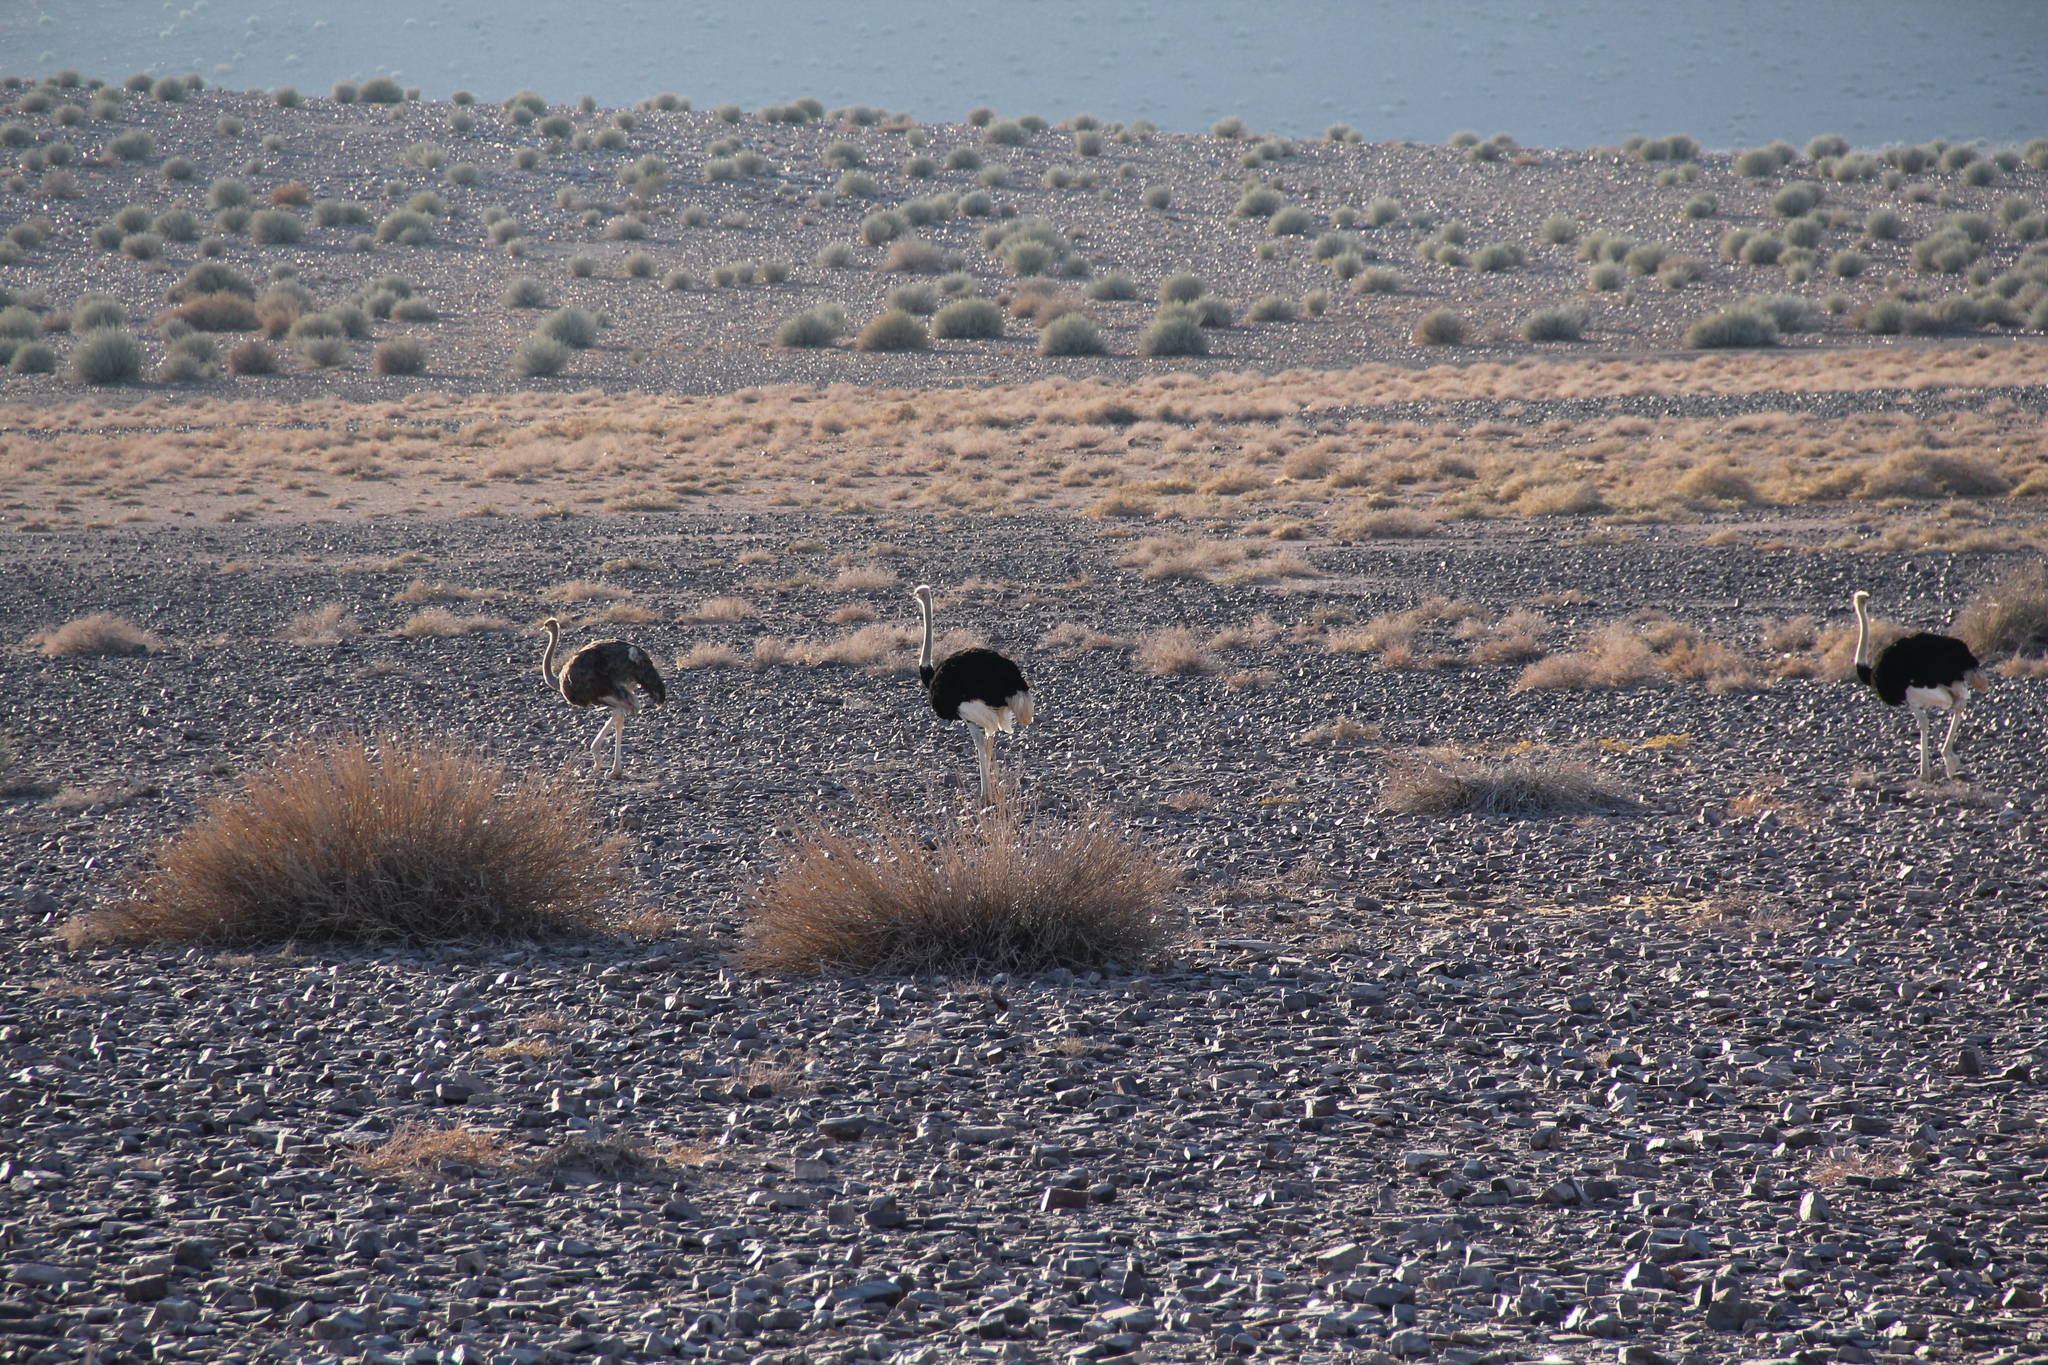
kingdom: Animalia
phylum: Chordata
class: Aves
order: Struthioniformes
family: Struthionidae
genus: Struthio
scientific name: Struthio camelus
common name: Common ostrich
